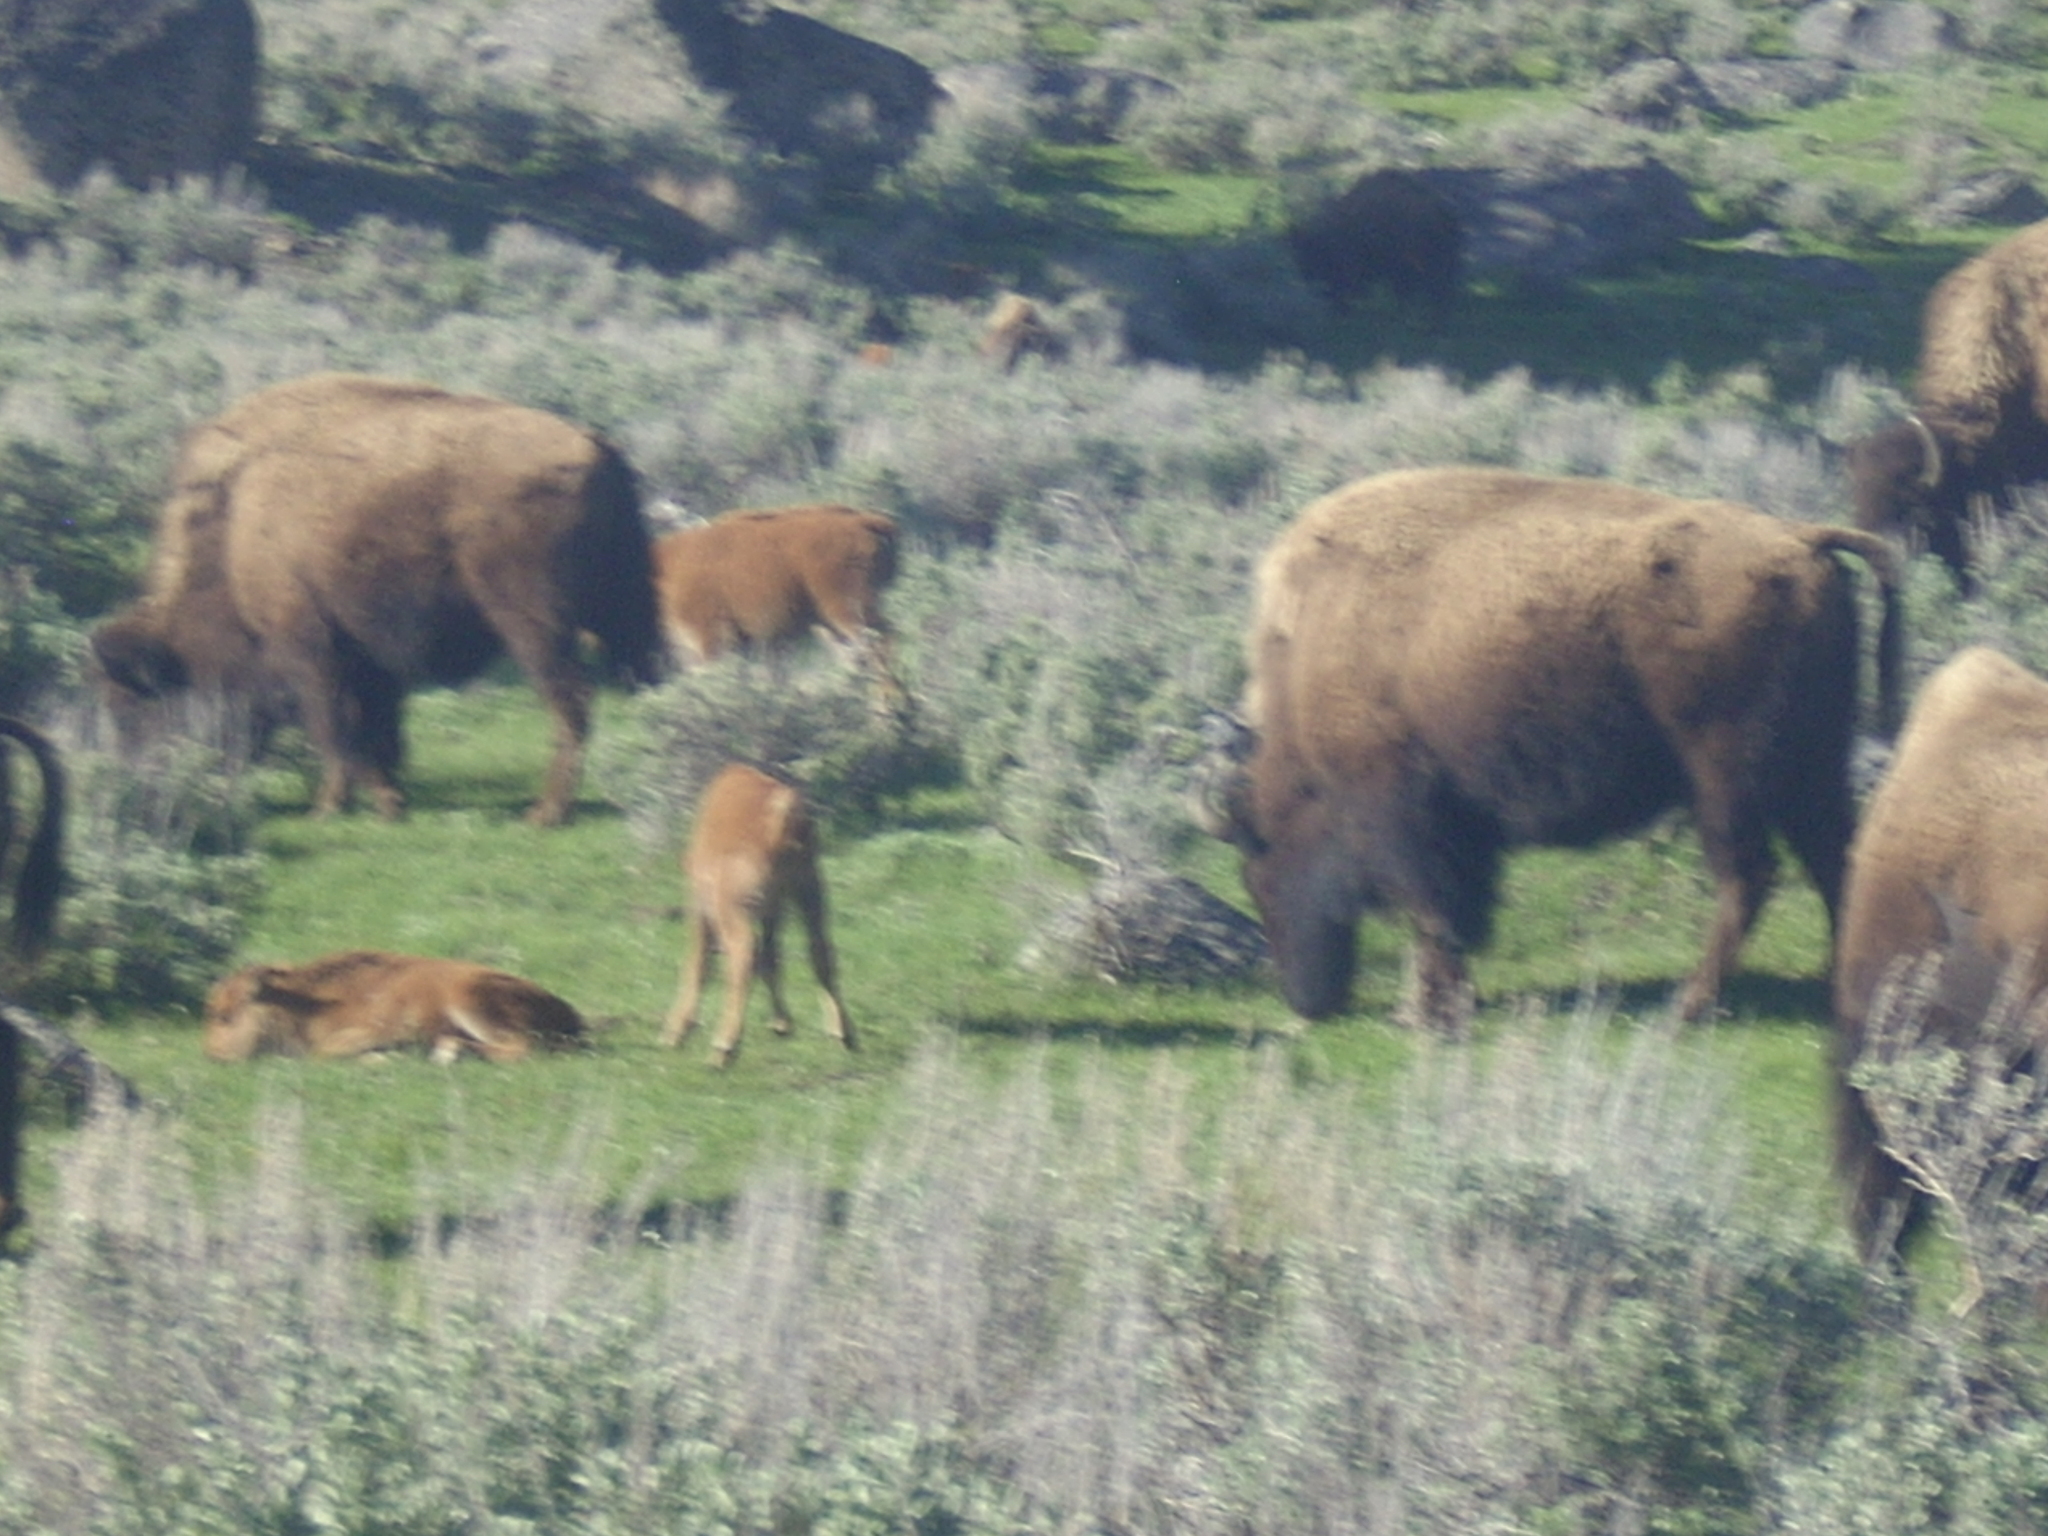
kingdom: Animalia
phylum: Chordata
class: Mammalia
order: Artiodactyla
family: Bovidae
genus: Bison
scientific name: Bison bison
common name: American bison
